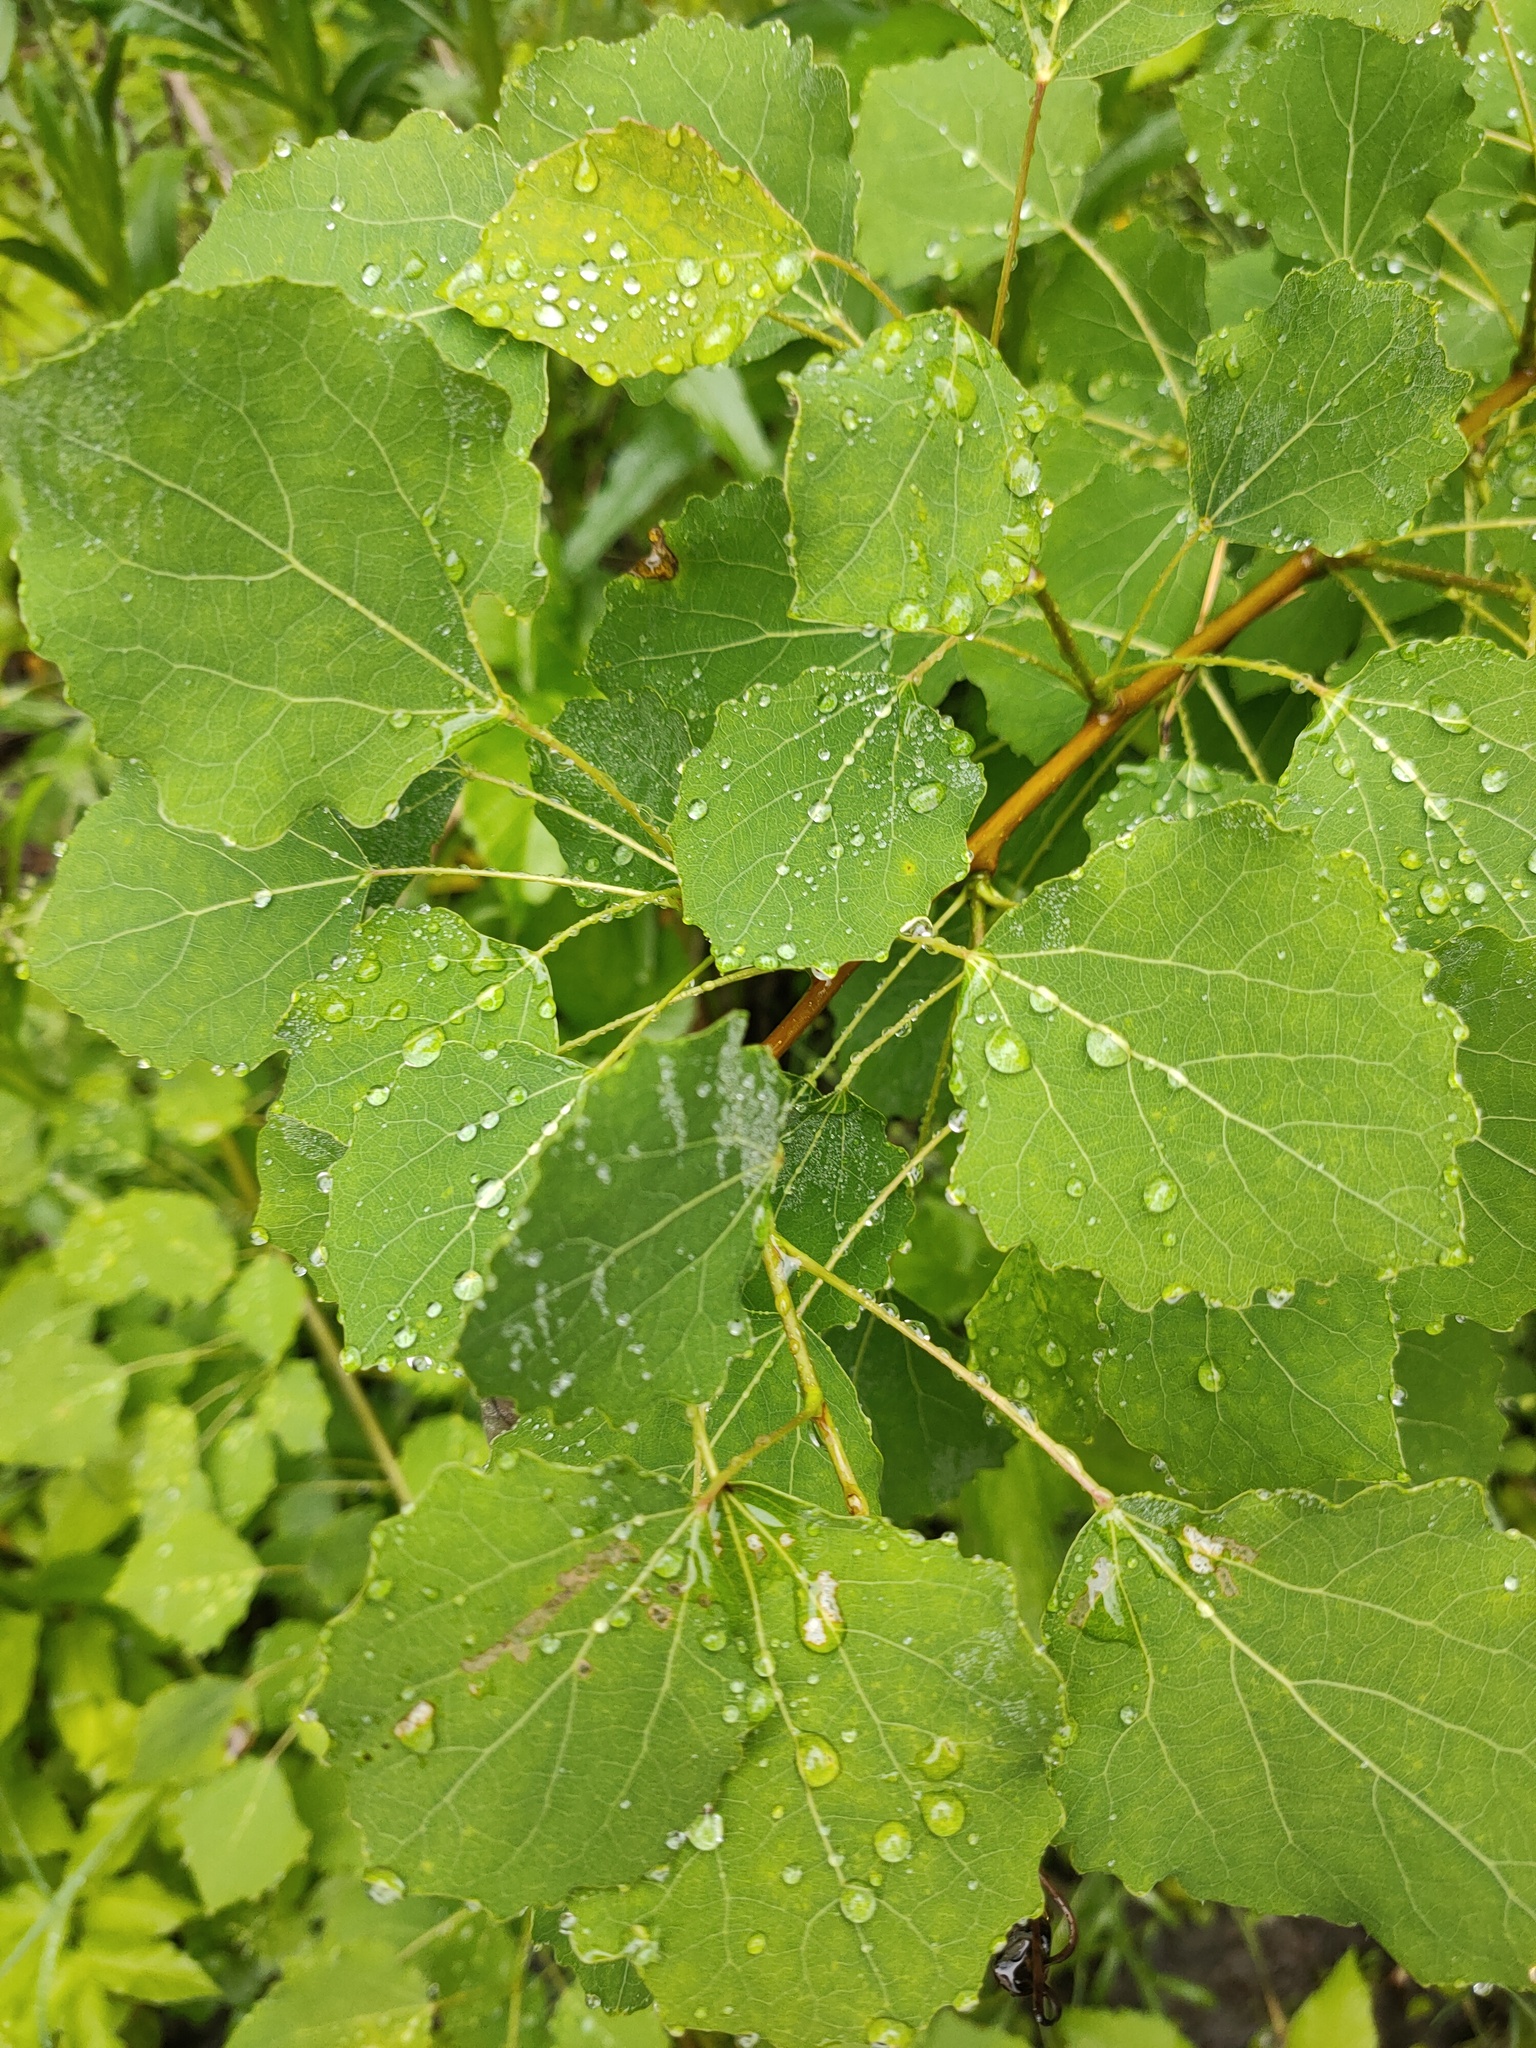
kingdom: Plantae
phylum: Tracheophyta
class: Magnoliopsida
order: Malpighiales
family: Salicaceae
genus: Populus
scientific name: Populus tremula
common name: European aspen
